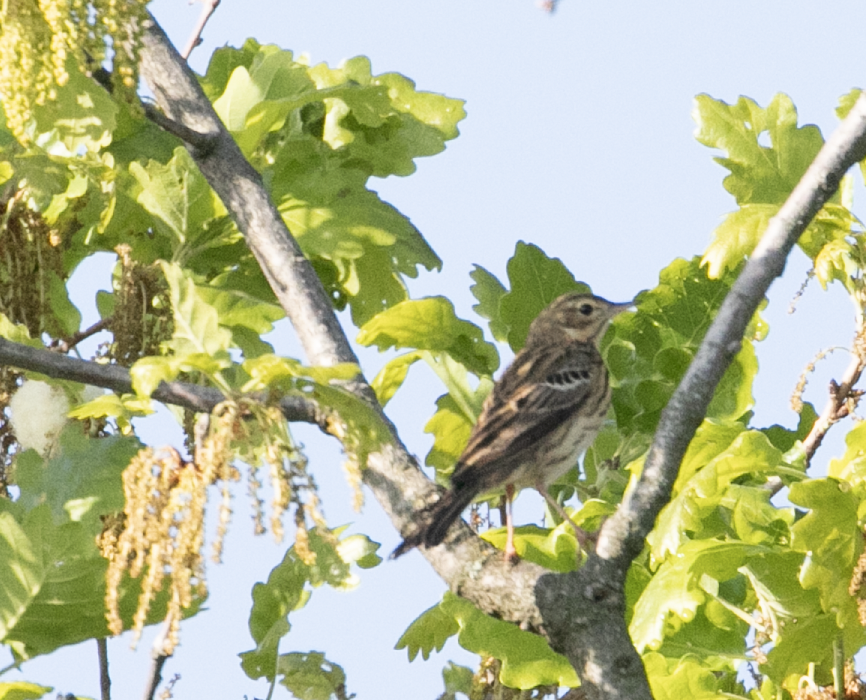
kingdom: Animalia
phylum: Chordata
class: Aves
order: Passeriformes
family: Motacillidae
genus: Anthus
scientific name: Anthus trivialis
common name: Tree pipit
